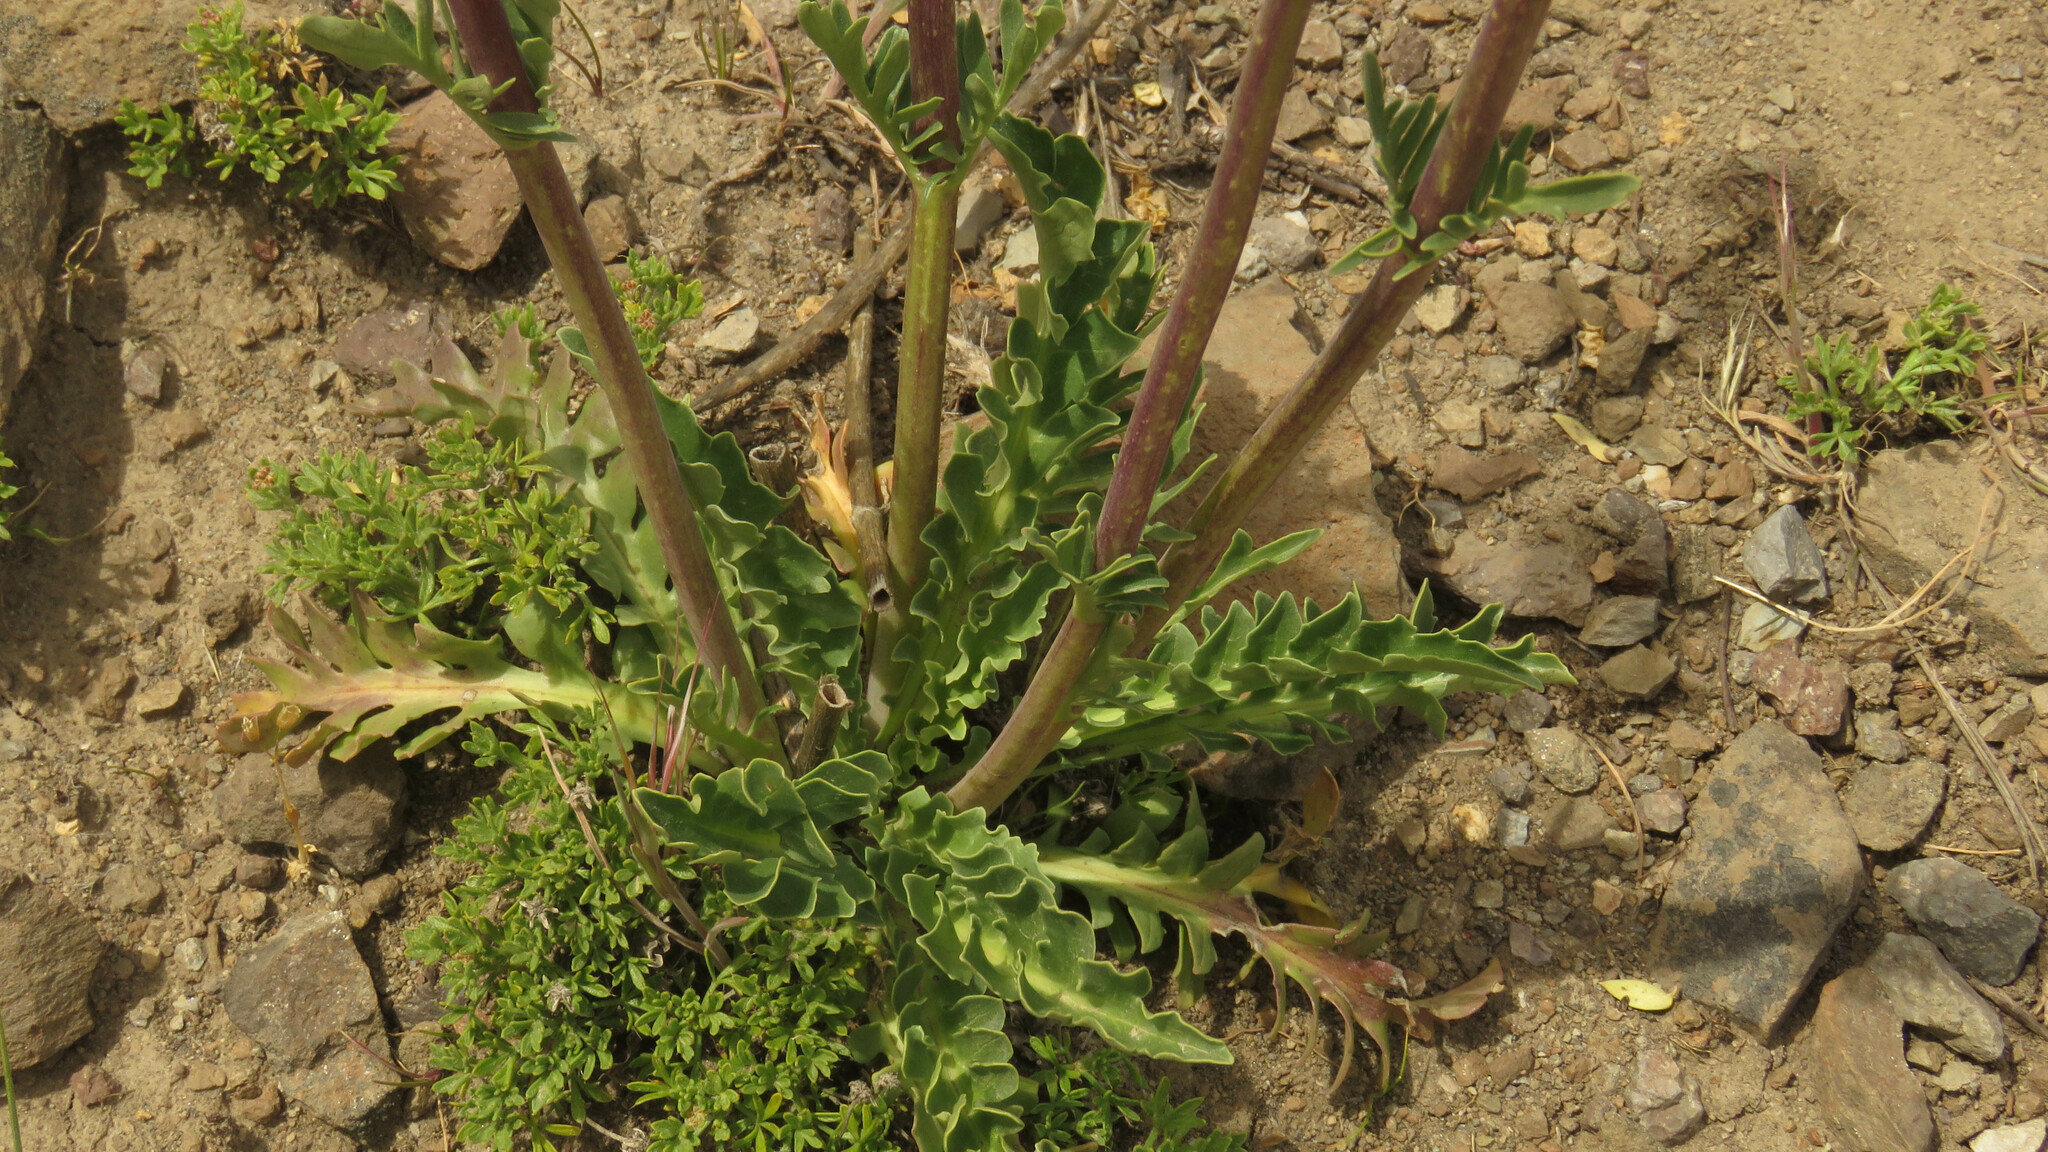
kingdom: Plantae
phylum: Tracheophyta
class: Magnoliopsida
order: Dipsacales
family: Caprifoliaceae
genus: Valeriana
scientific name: Valeriana clarionifolia
